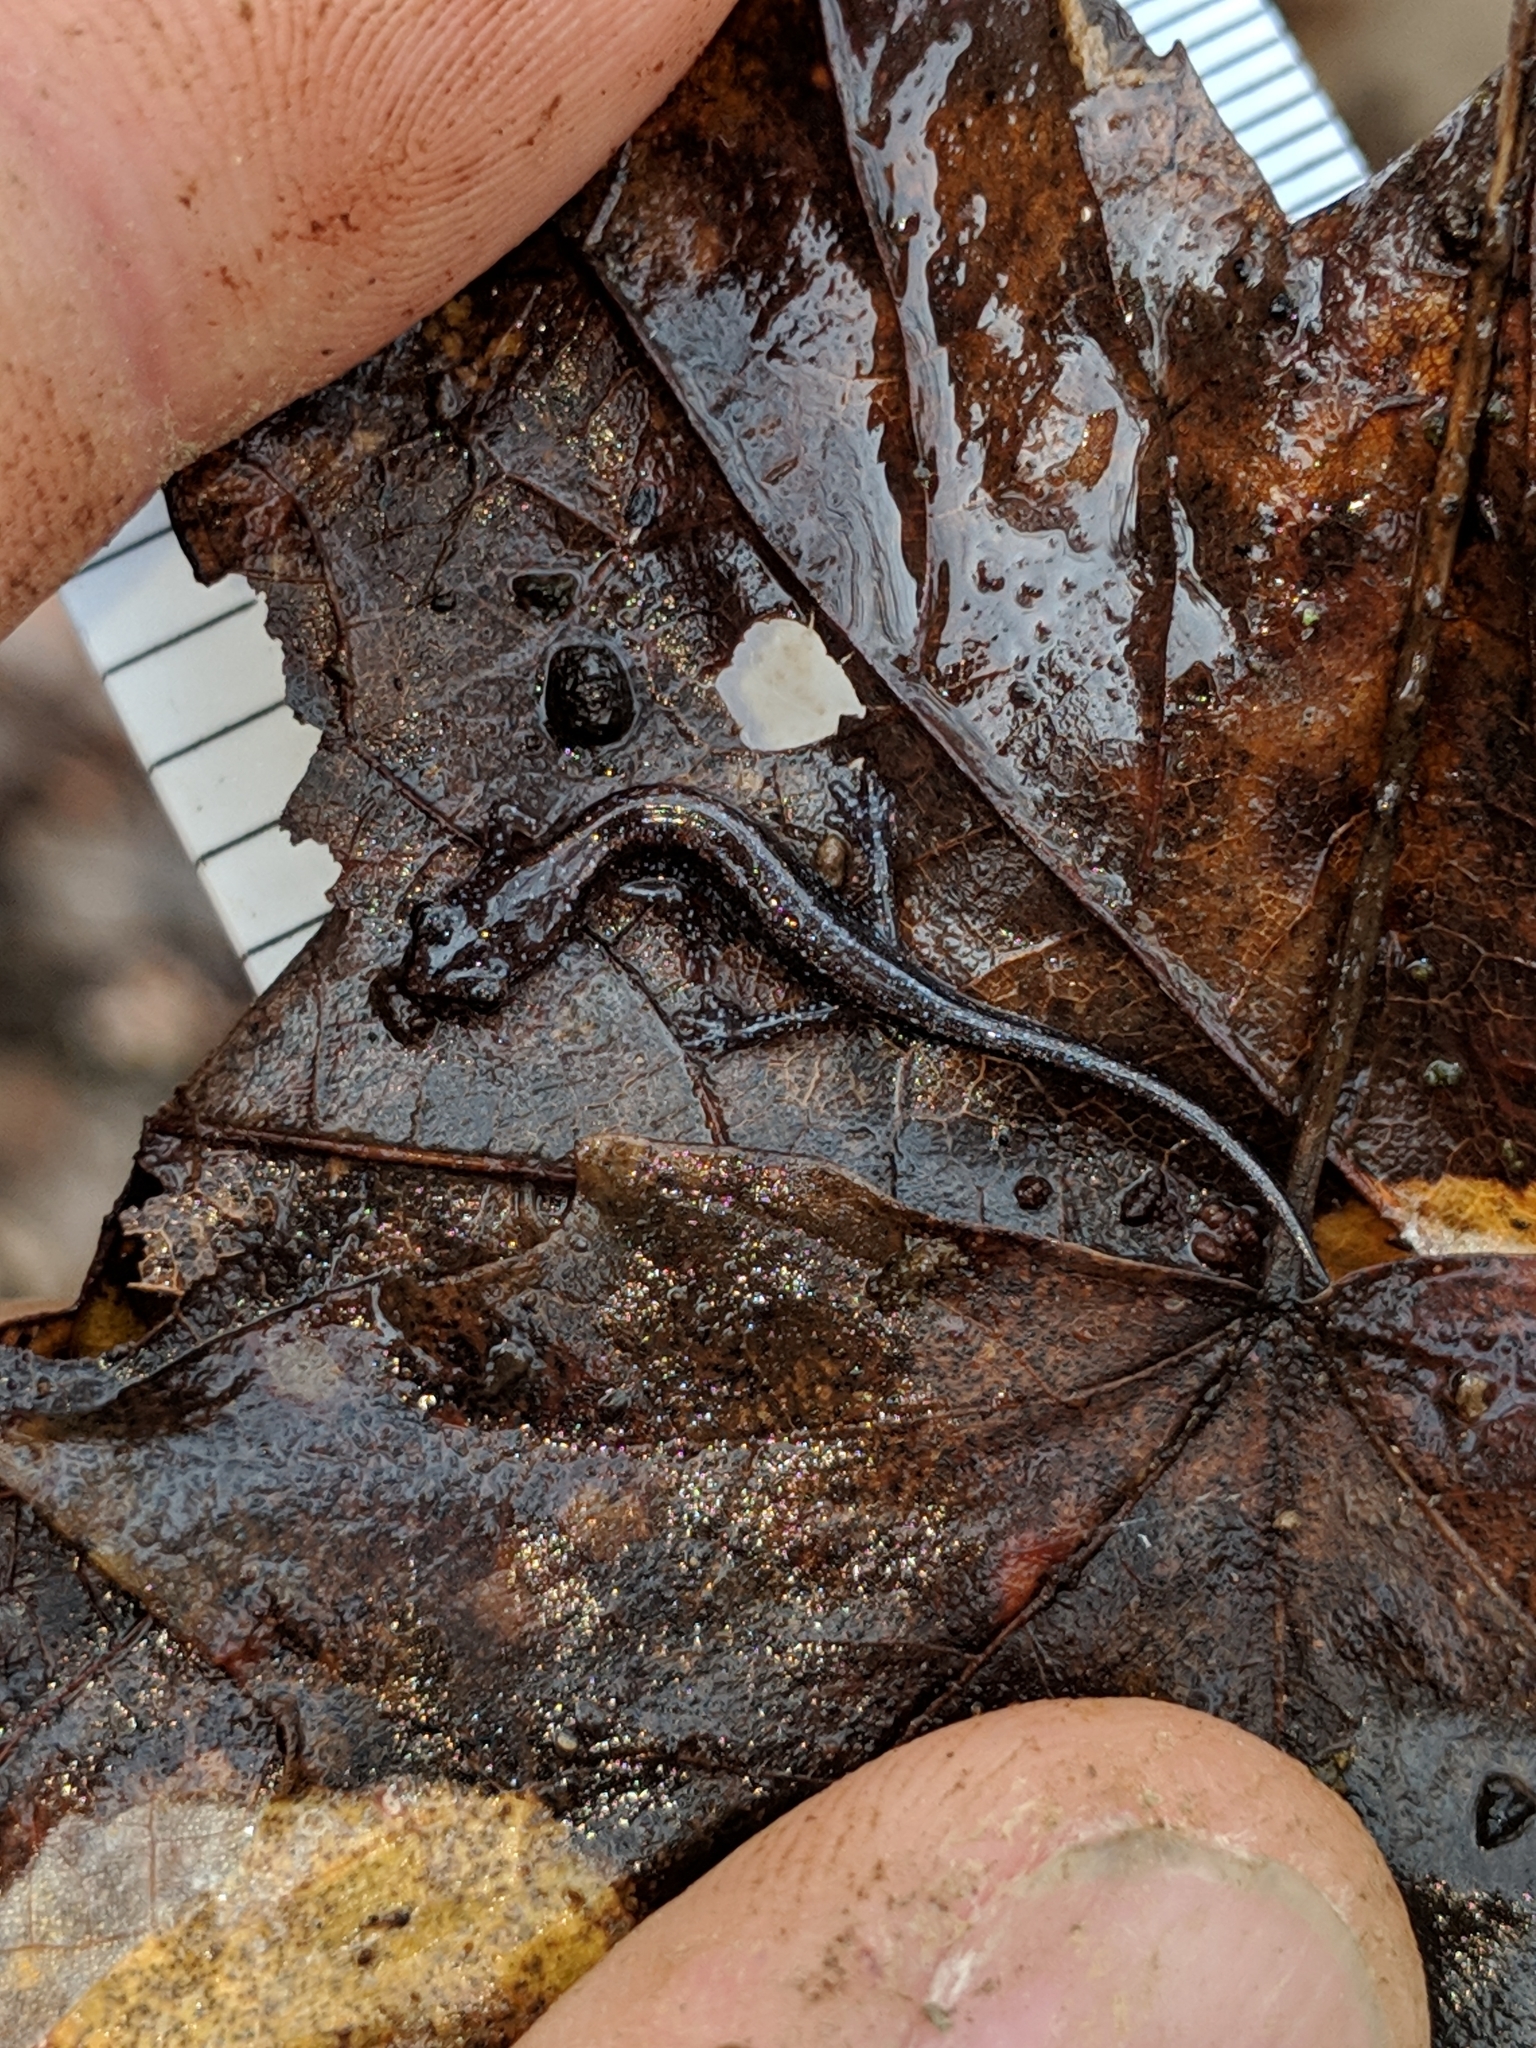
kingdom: Animalia
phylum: Chordata
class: Amphibia
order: Caudata
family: Plethodontidae
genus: Plethodon
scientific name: Plethodon glutinosus
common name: Northern slimy salamander
